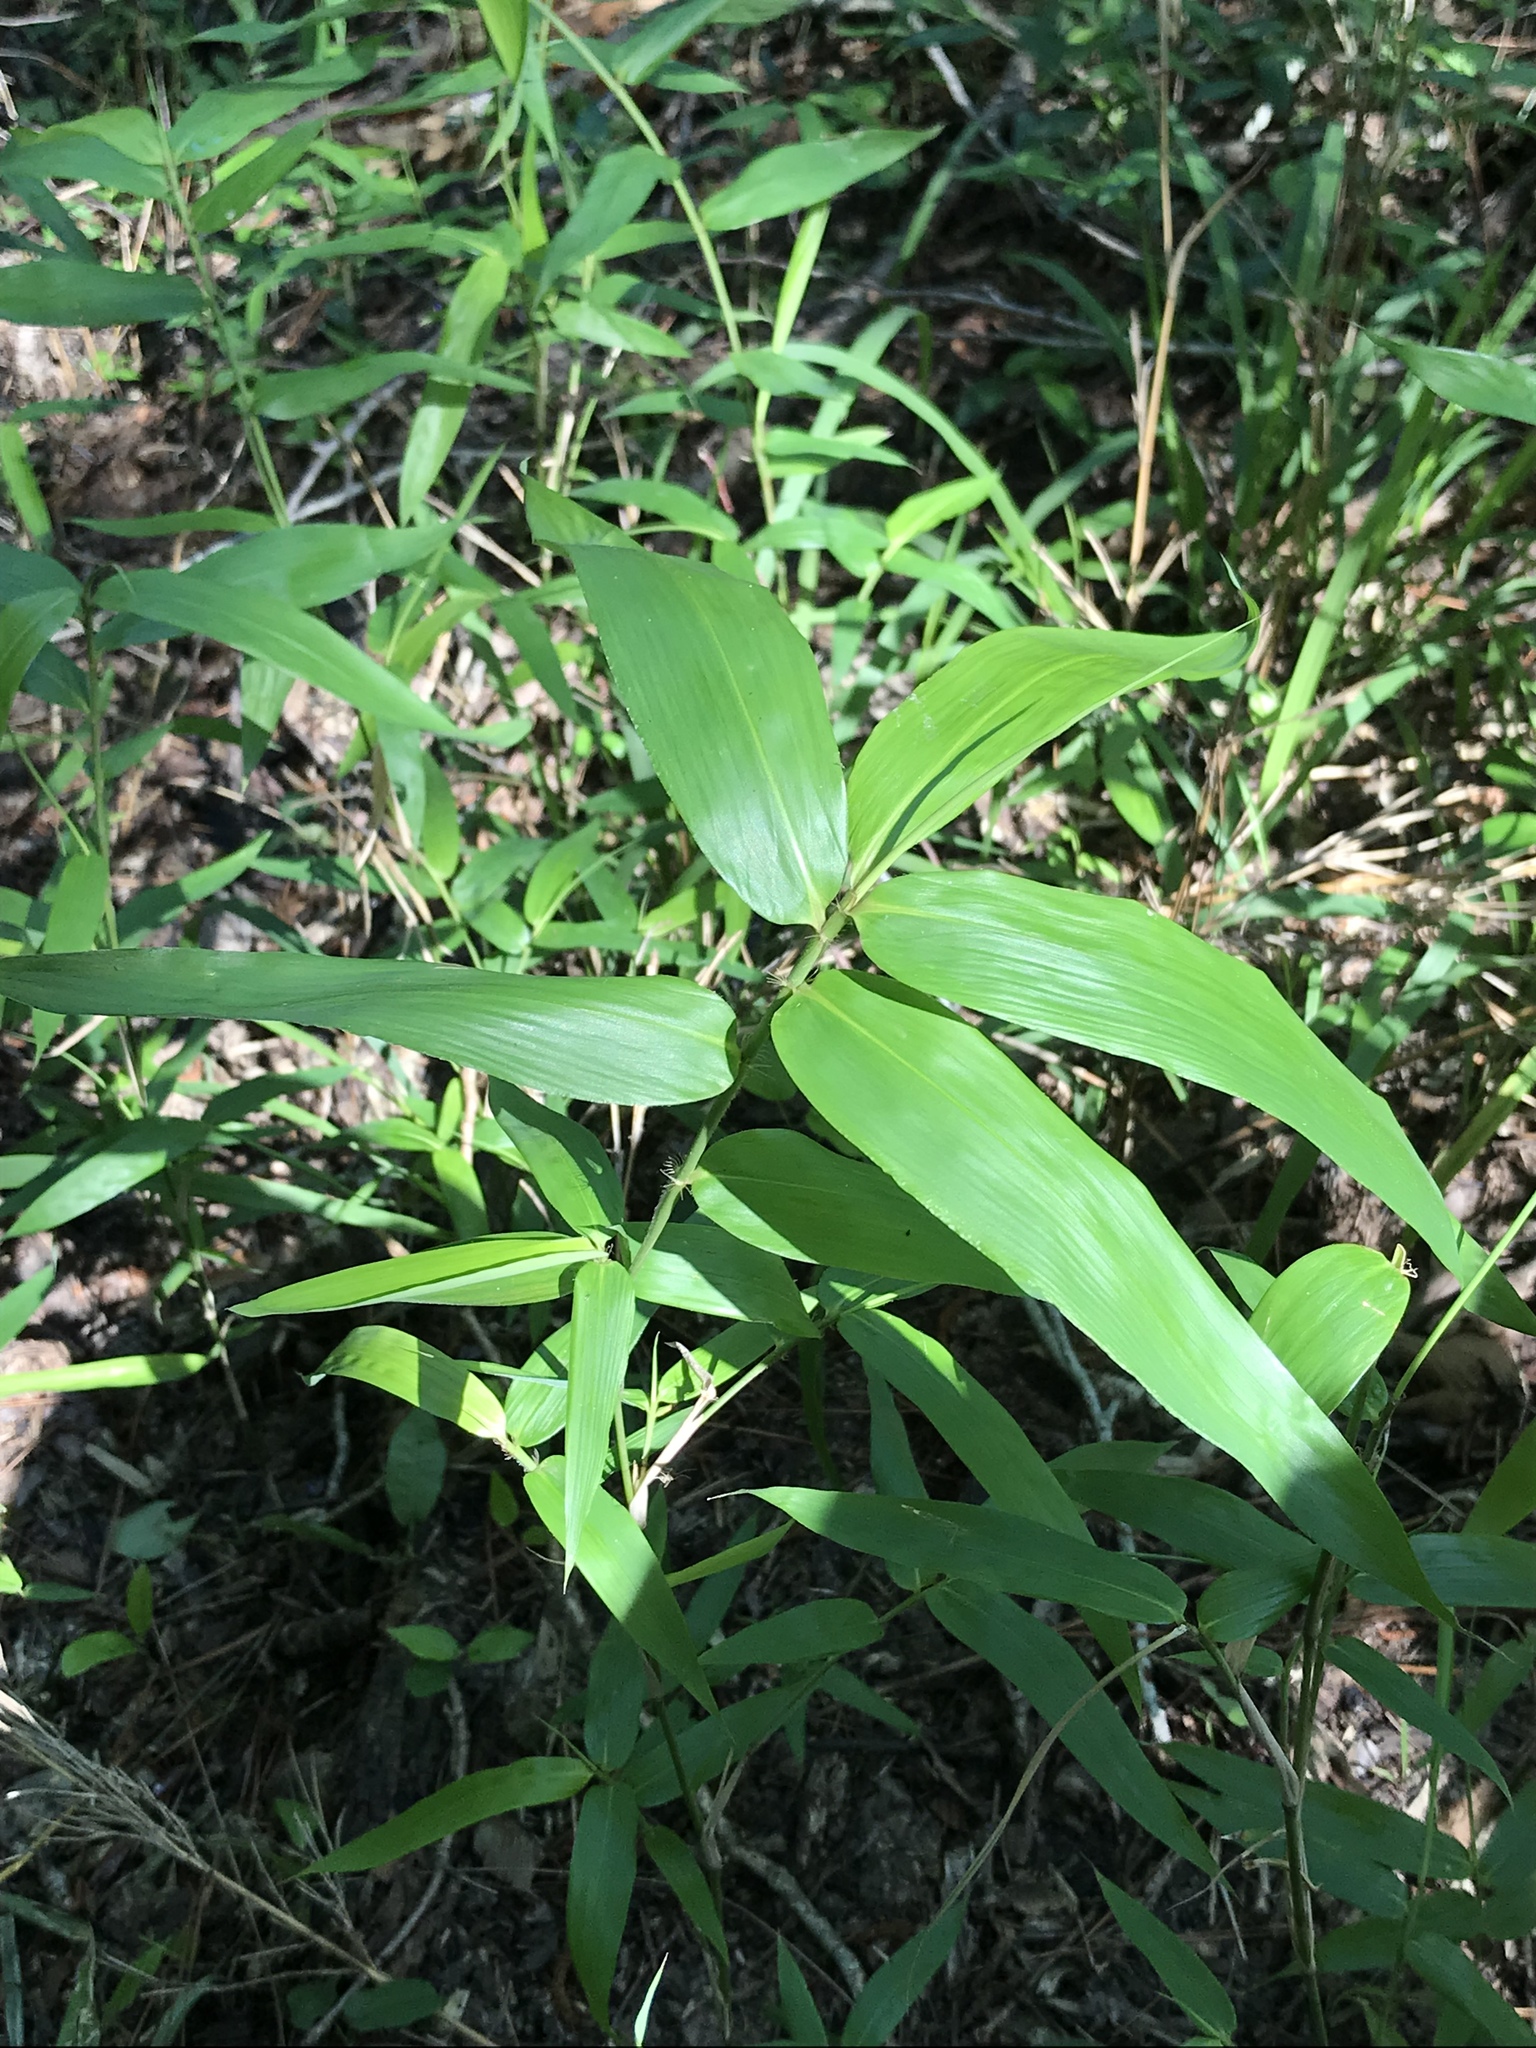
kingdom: Plantae
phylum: Tracheophyta
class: Liliopsida
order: Poales
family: Poaceae
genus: Arundinaria
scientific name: Arundinaria gigantea
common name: Giant cane
